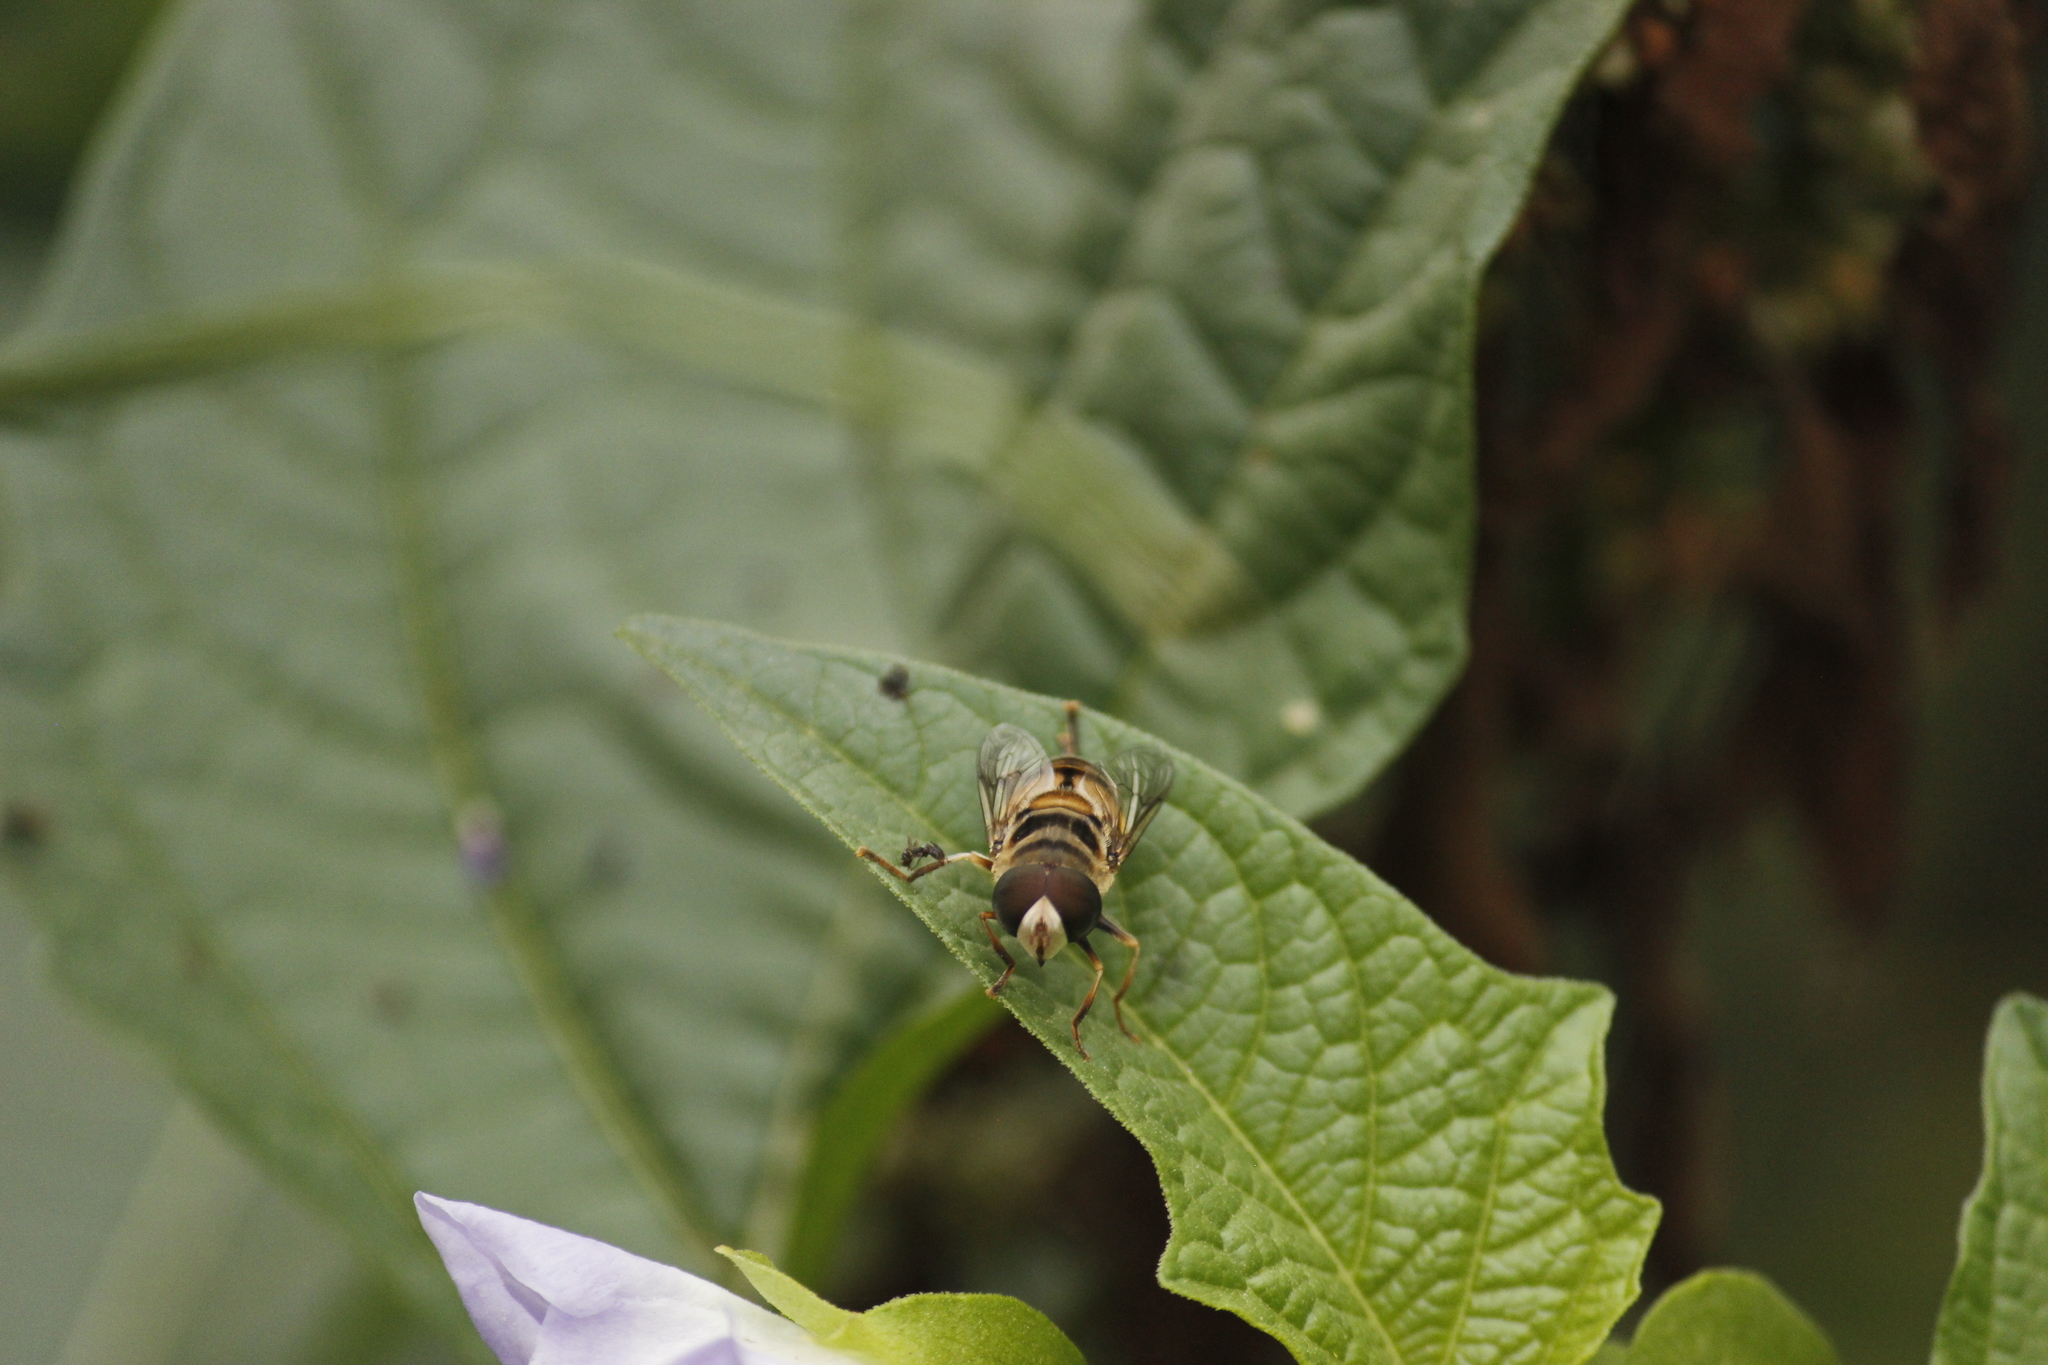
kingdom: Animalia
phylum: Arthropoda
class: Insecta
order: Diptera
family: Syrphidae
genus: Palpada
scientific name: Palpada vinetorum
